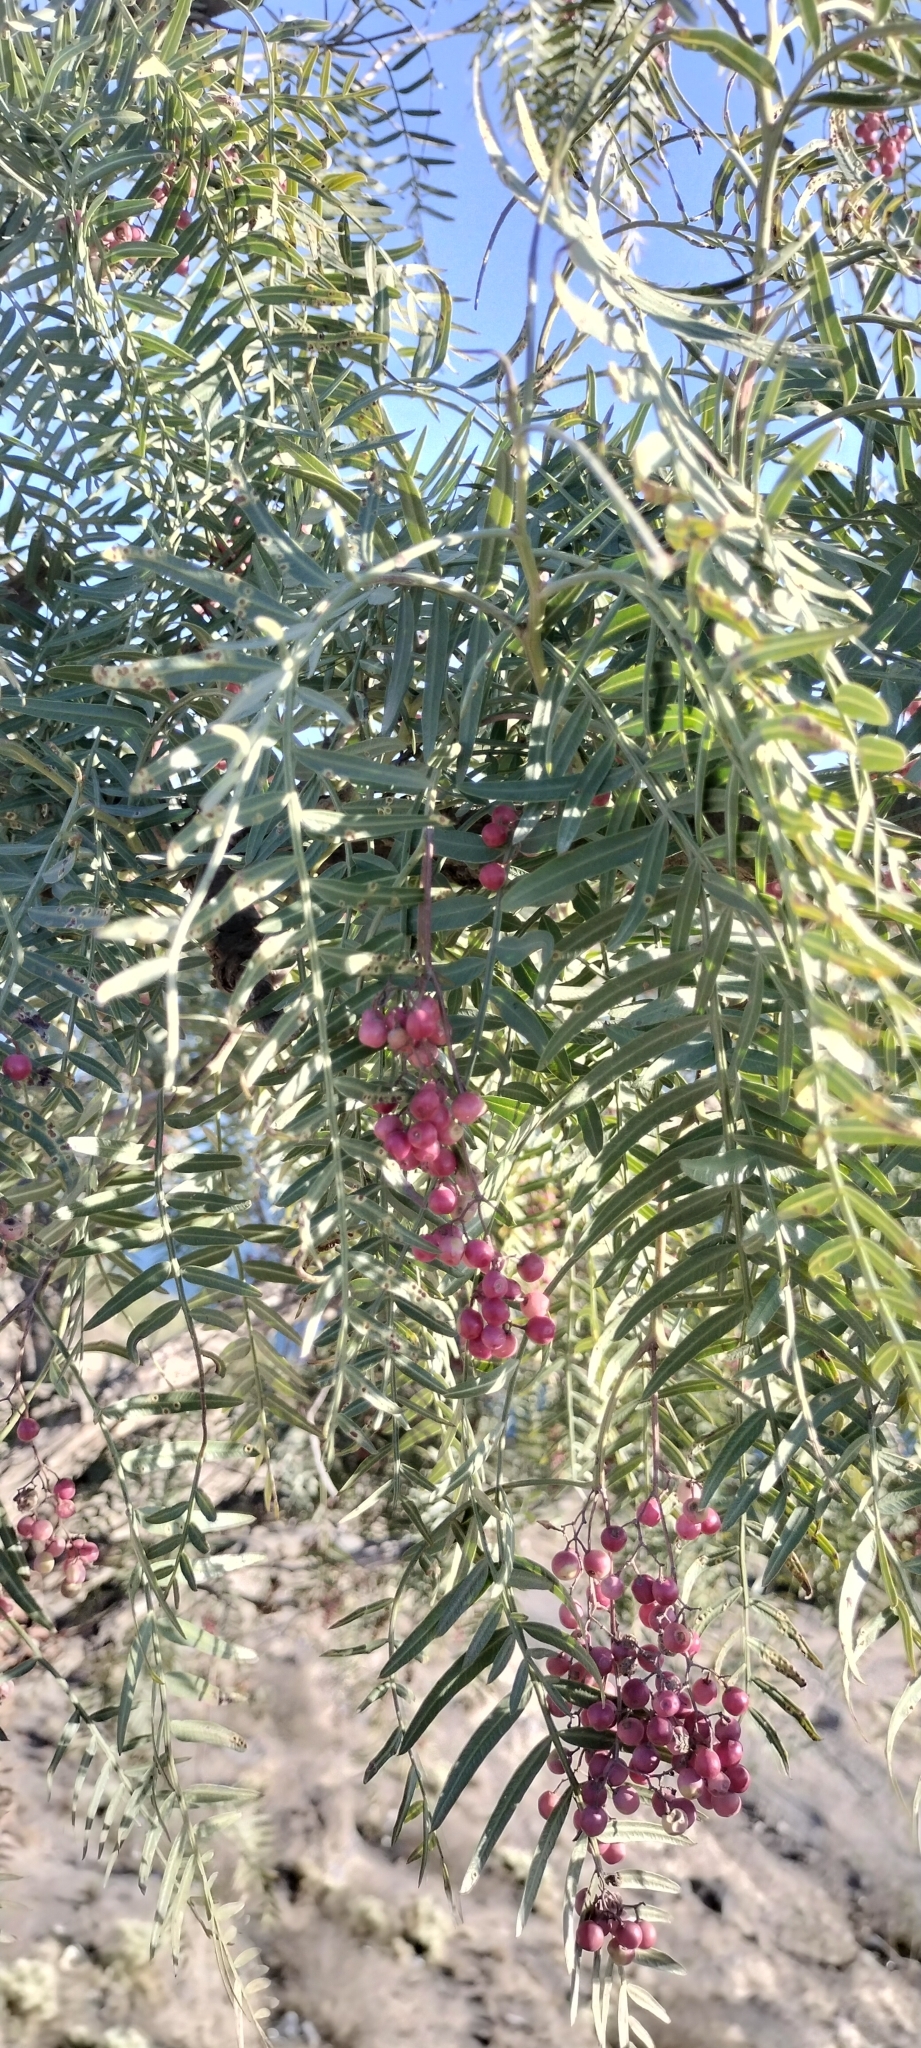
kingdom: Plantae
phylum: Tracheophyta
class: Magnoliopsida
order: Sapindales
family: Anacardiaceae
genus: Schinus
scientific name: Schinus molle
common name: Peruvian peppertree
